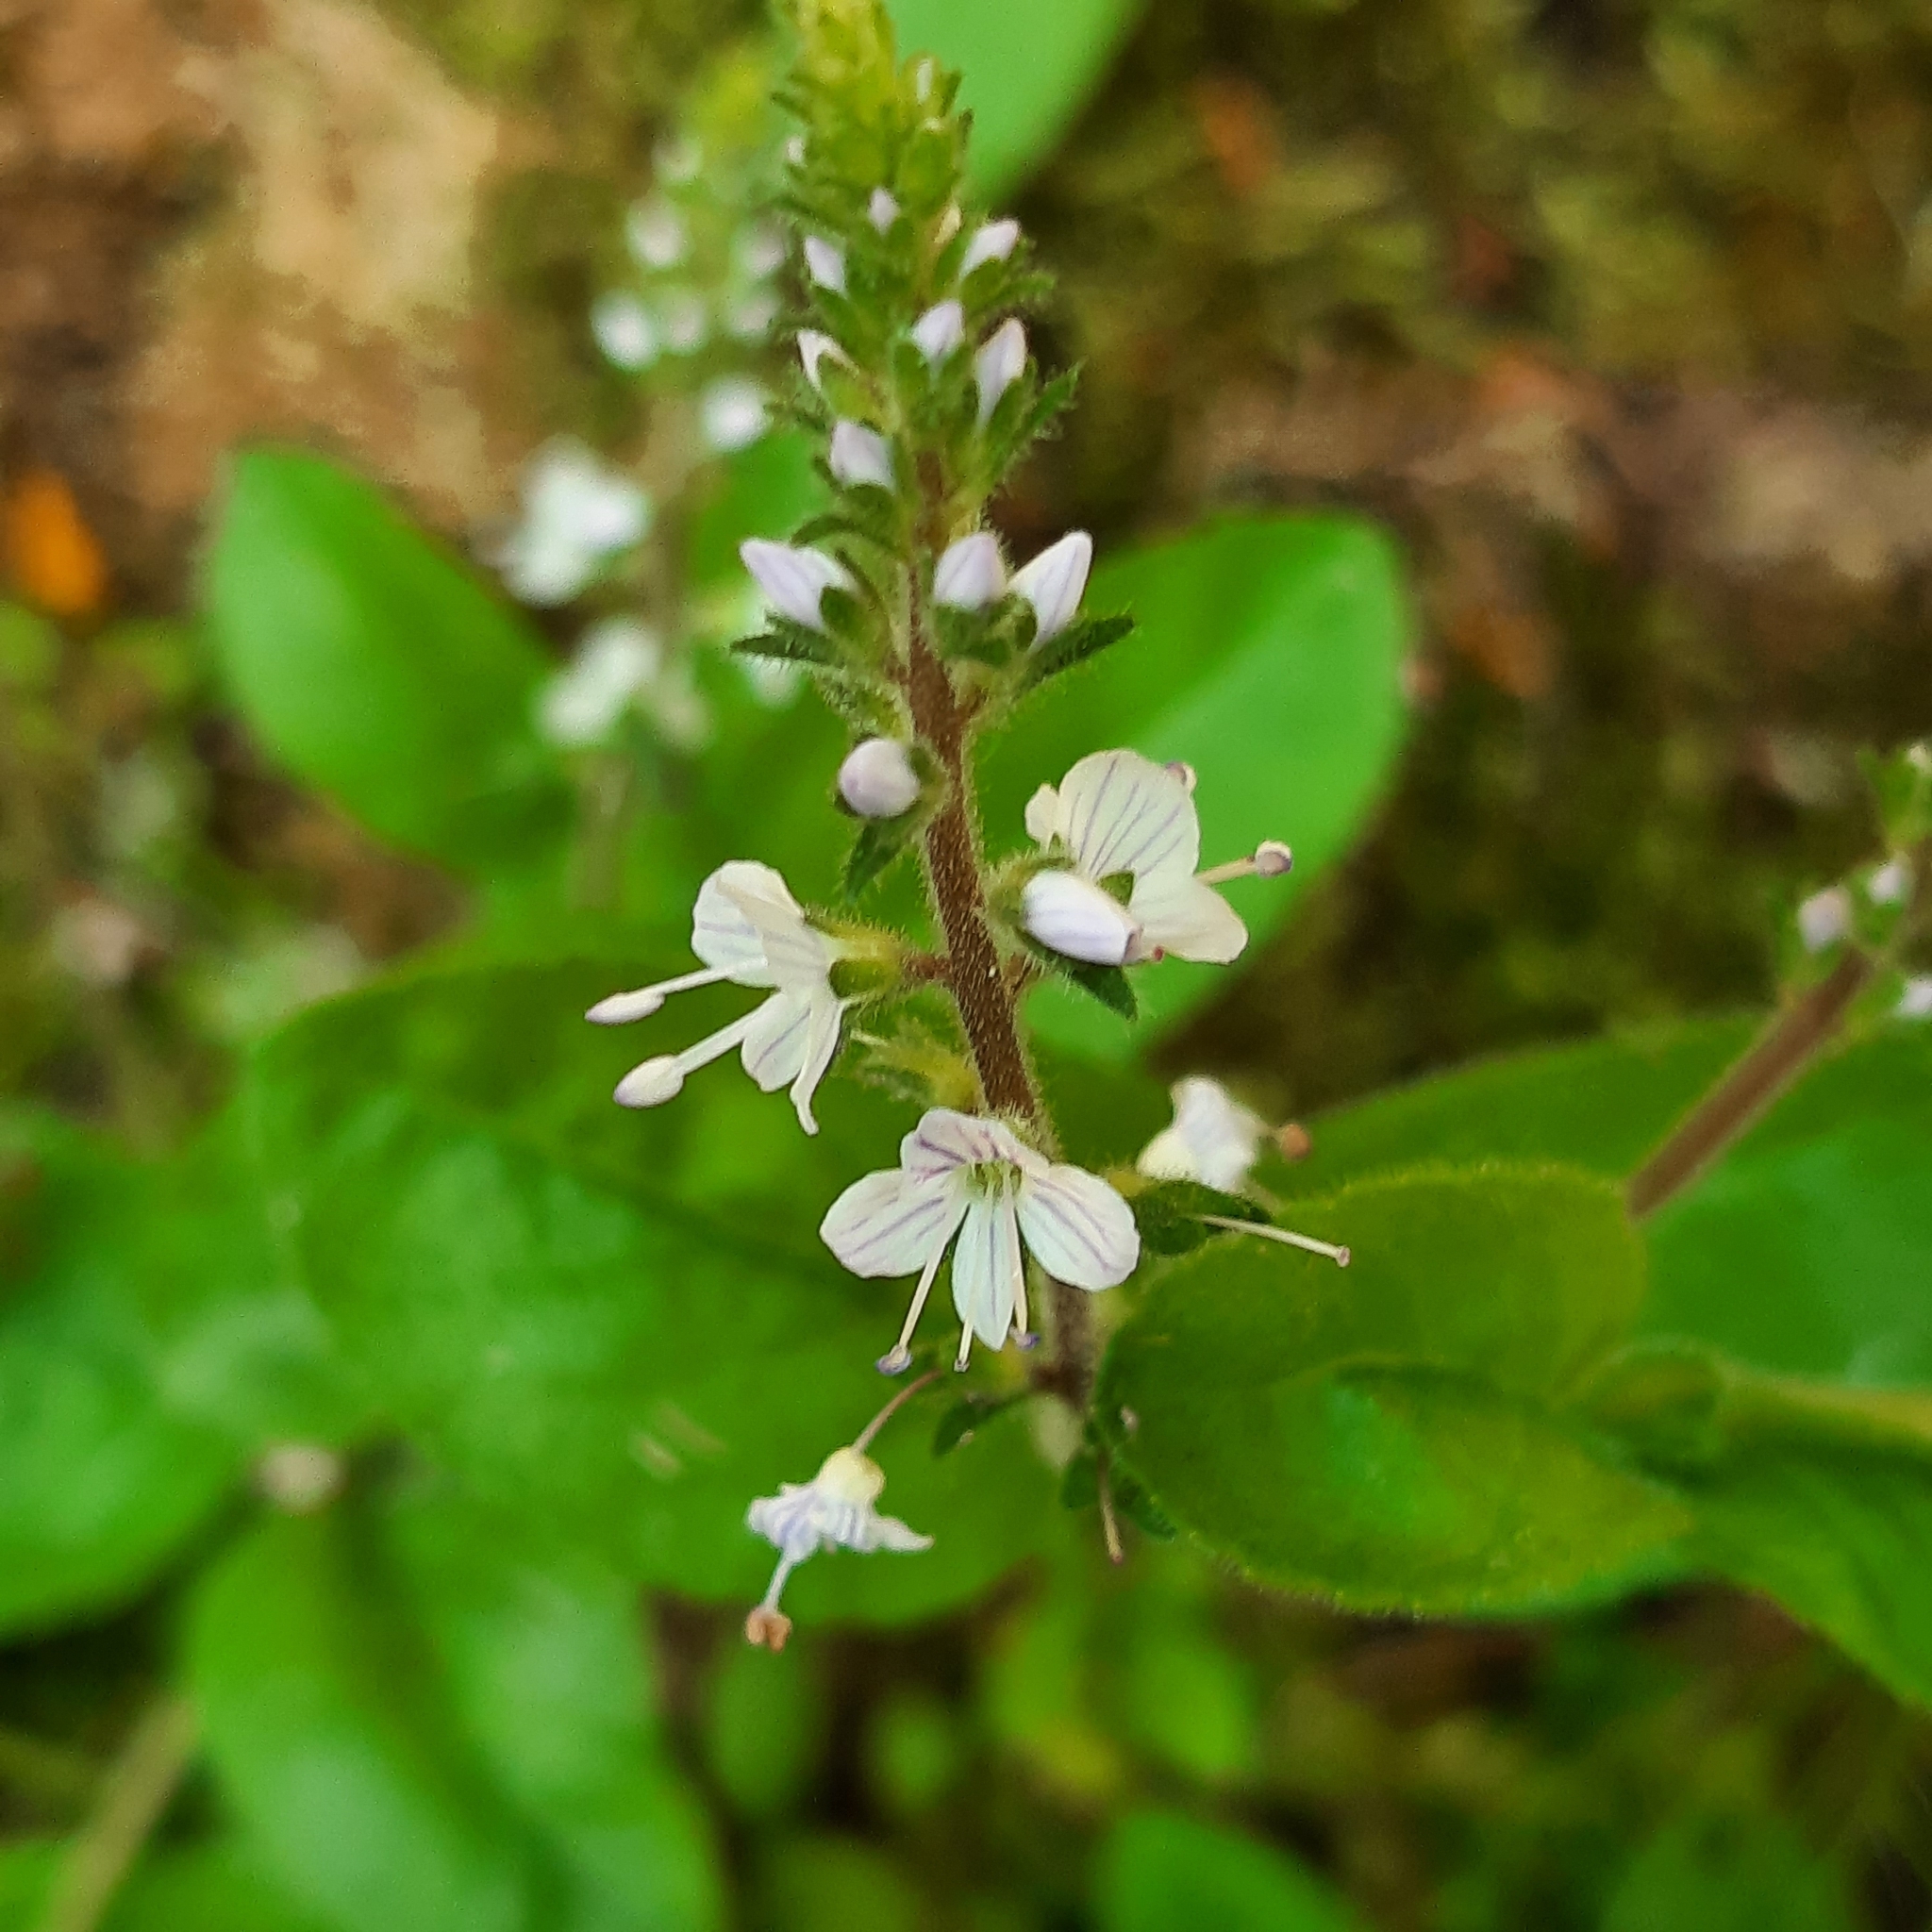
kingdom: Plantae
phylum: Tracheophyta
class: Magnoliopsida
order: Lamiales
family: Plantaginaceae
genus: Veronica
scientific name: Veronica officinalis
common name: Common speedwell
